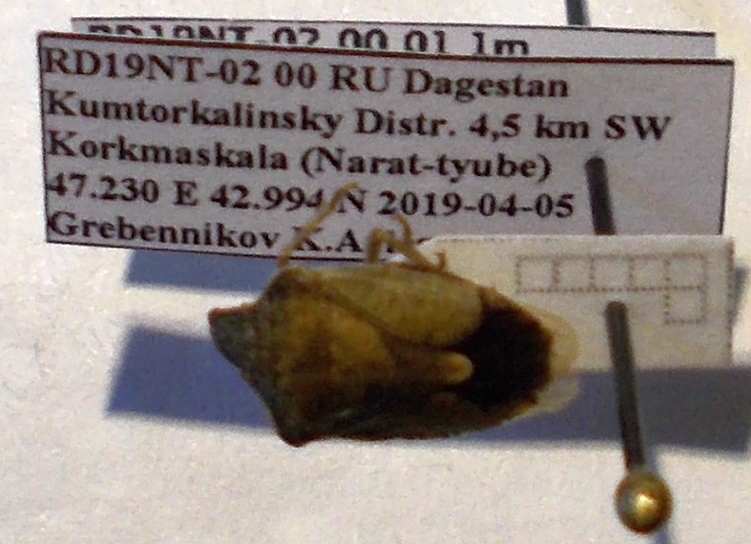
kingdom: Animalia
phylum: Arthropoda
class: Insecta
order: Hemiptera
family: Pentatomidae
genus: Holcostethus
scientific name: Holcostethus strictus
